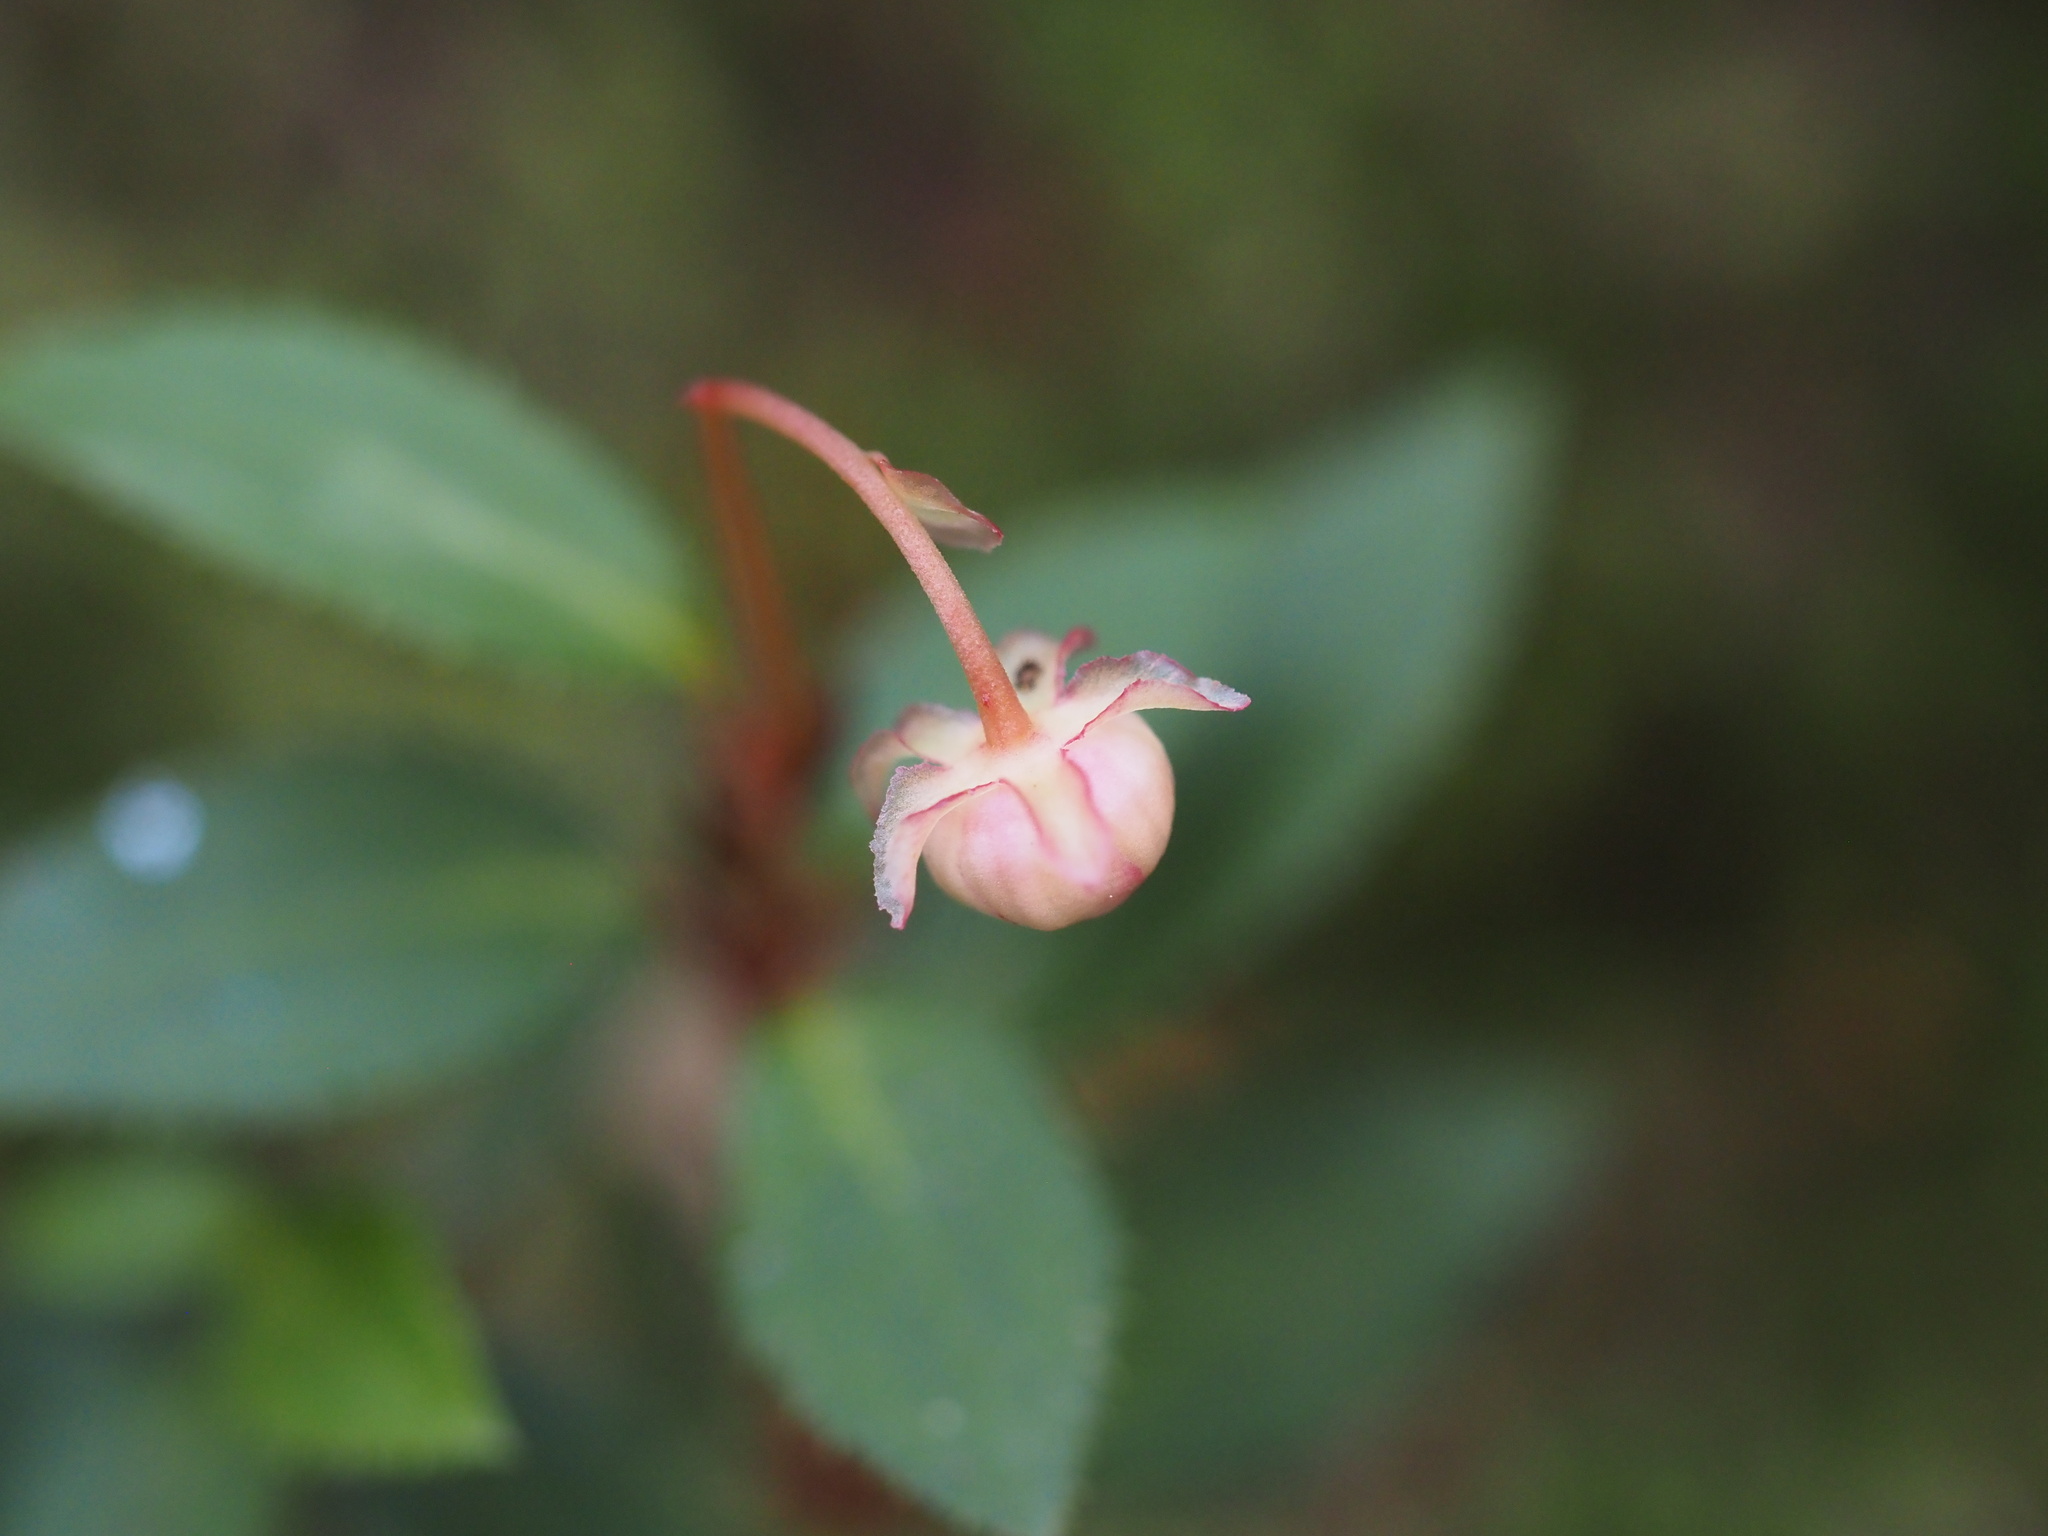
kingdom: Plantae
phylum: Tracheophyta
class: Magnoliopsida
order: Ericales
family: Ericaceae
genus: Chimaphila
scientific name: Chimaphila menziesii
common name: Menzies' pipsissewa
